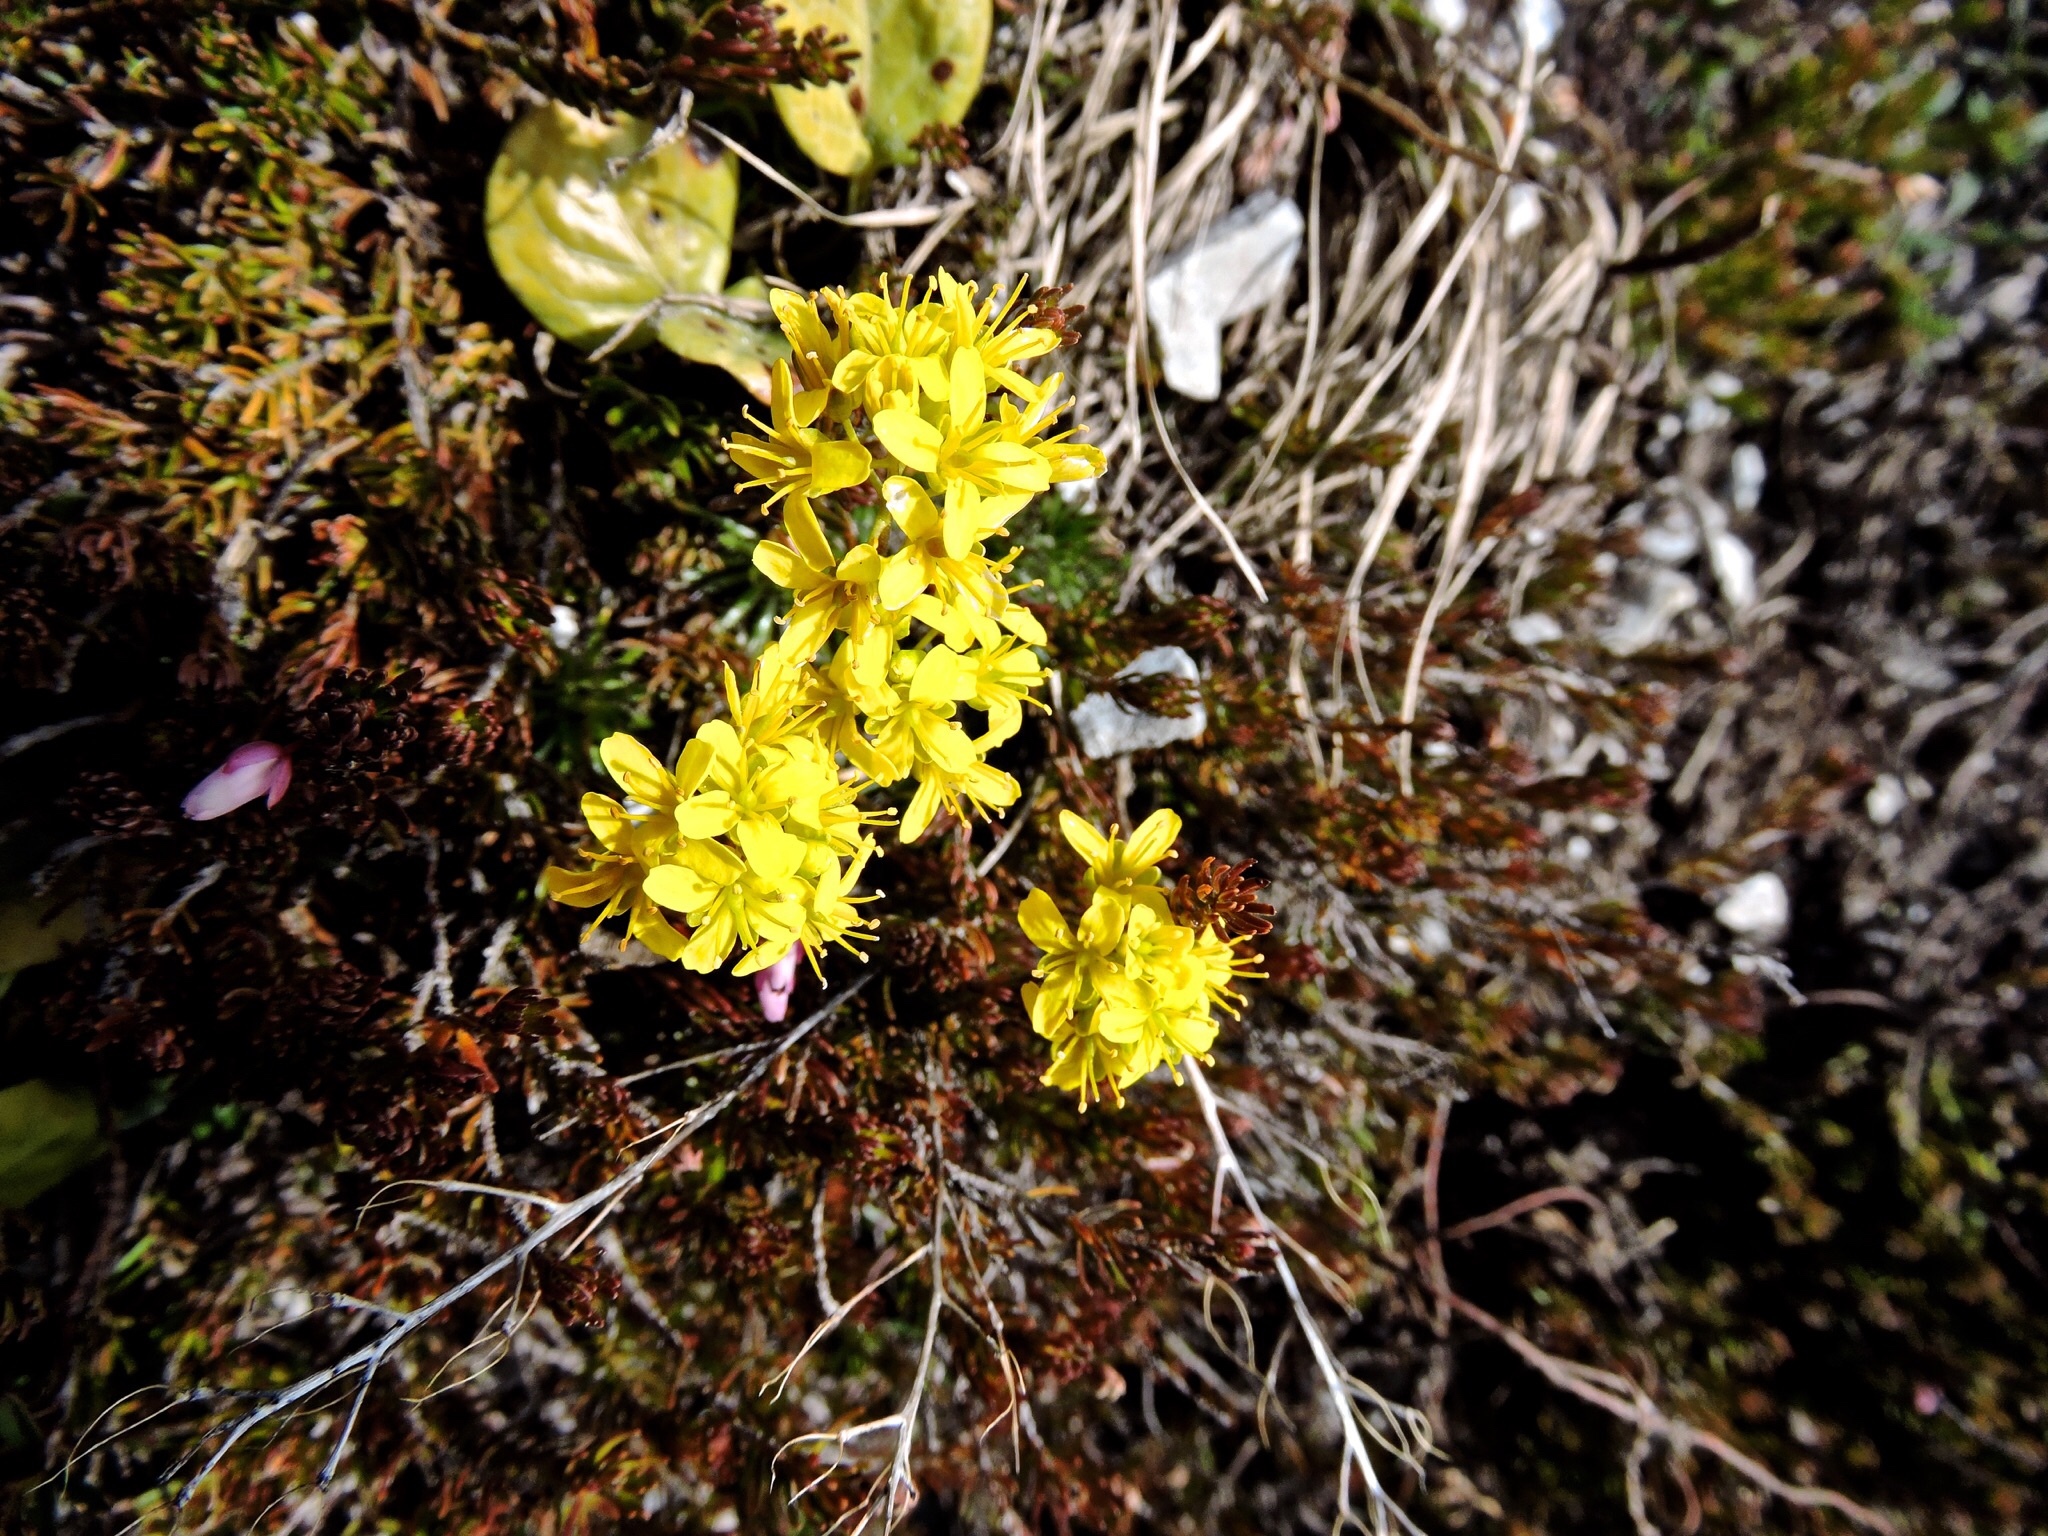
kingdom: Plantae
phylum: Tracheophyta
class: Magnoliopsida
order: Brassicales
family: Brassicaceae
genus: Draba
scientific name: Draba aizoides
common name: Yellow whitlowgrass
